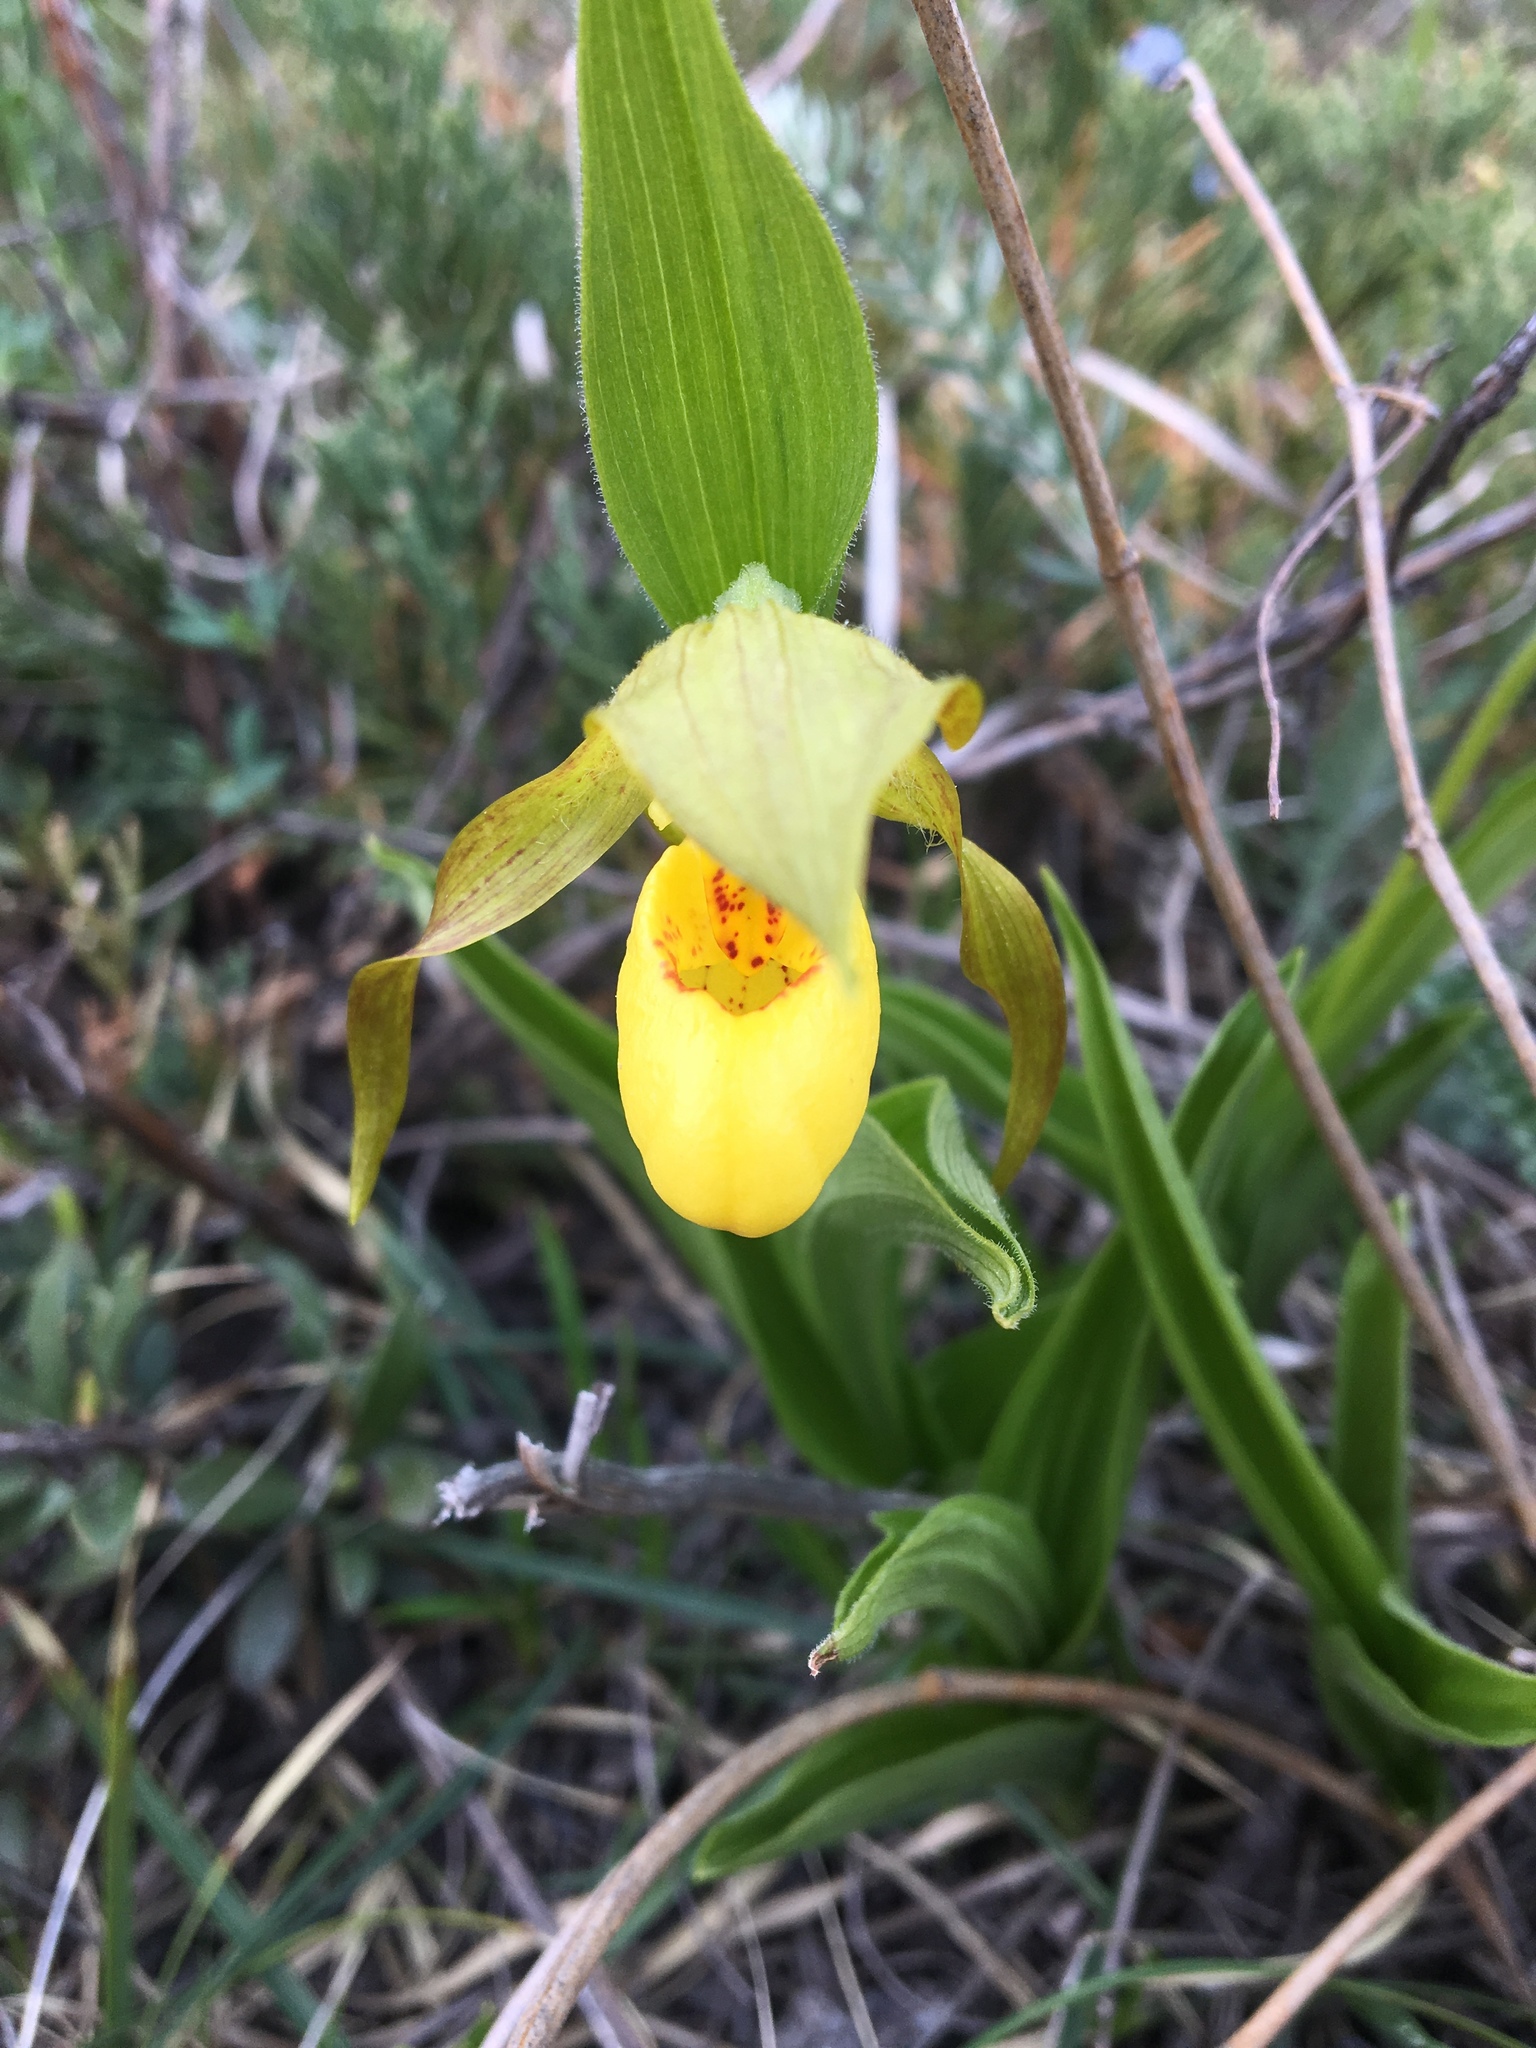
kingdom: Plantae
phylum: Tracheophyta
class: Liliopsida
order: Asparagales
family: Orchidaceae
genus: Cypripedium
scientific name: Cypripedium parviflorum
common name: American yellow lady's-slipper
